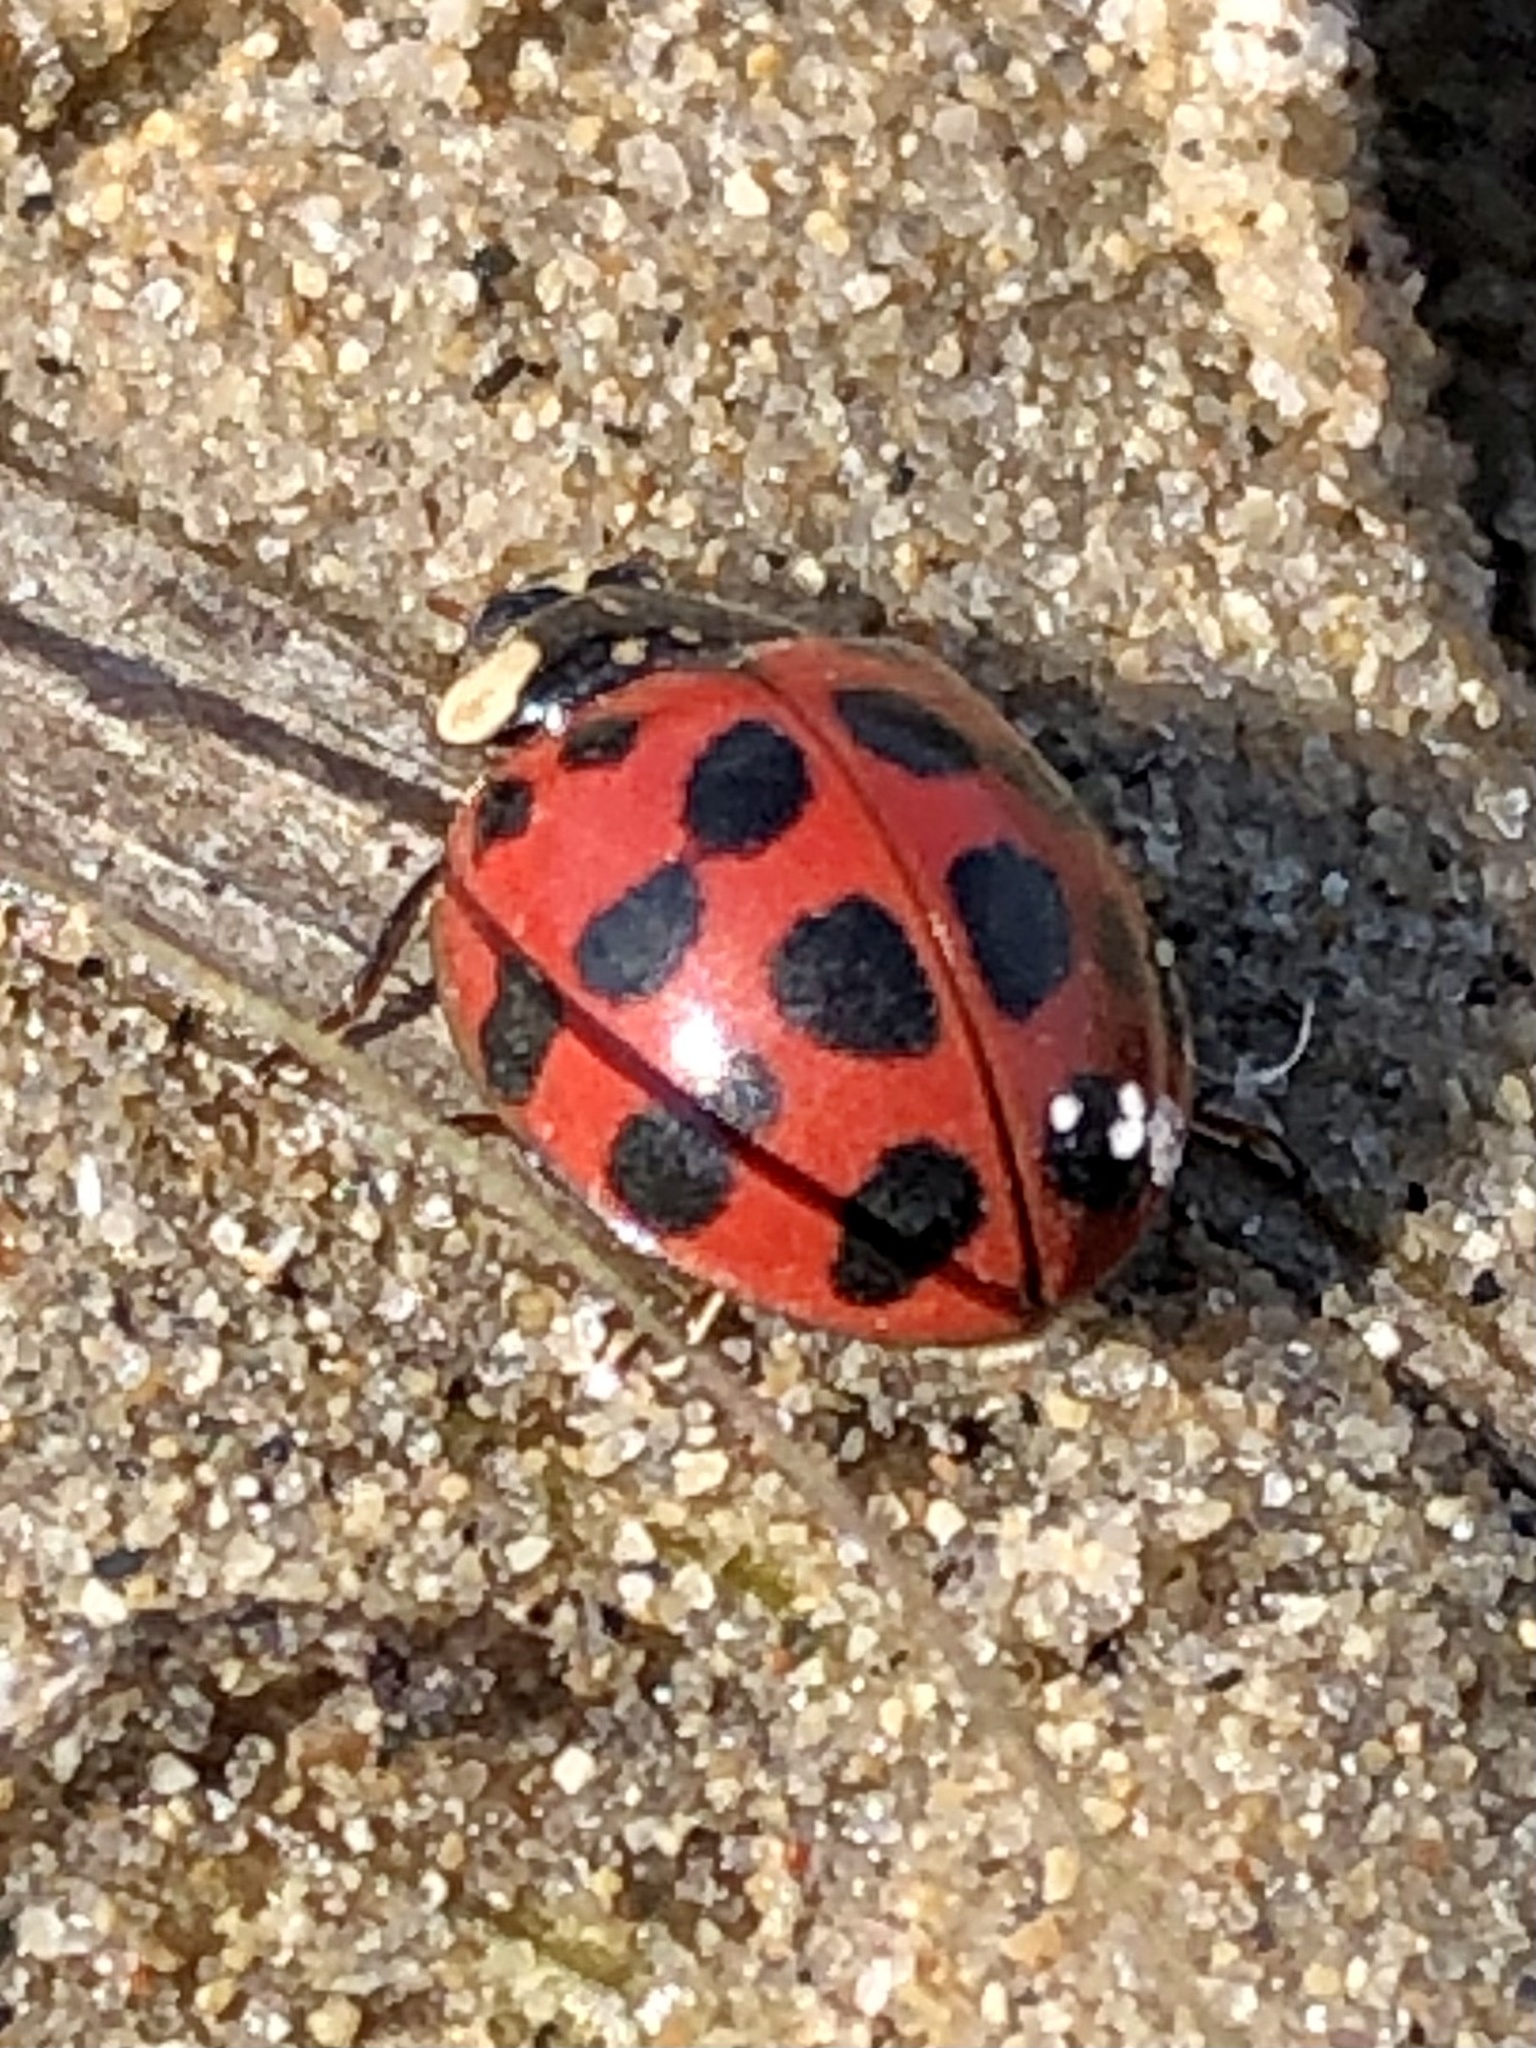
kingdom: Animalia
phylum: Arthropoda
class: Insecta
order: Coleoptera
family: Coccinellidae
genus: Harmonia
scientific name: Harmonia axyridis
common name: Harlequin ladybird
